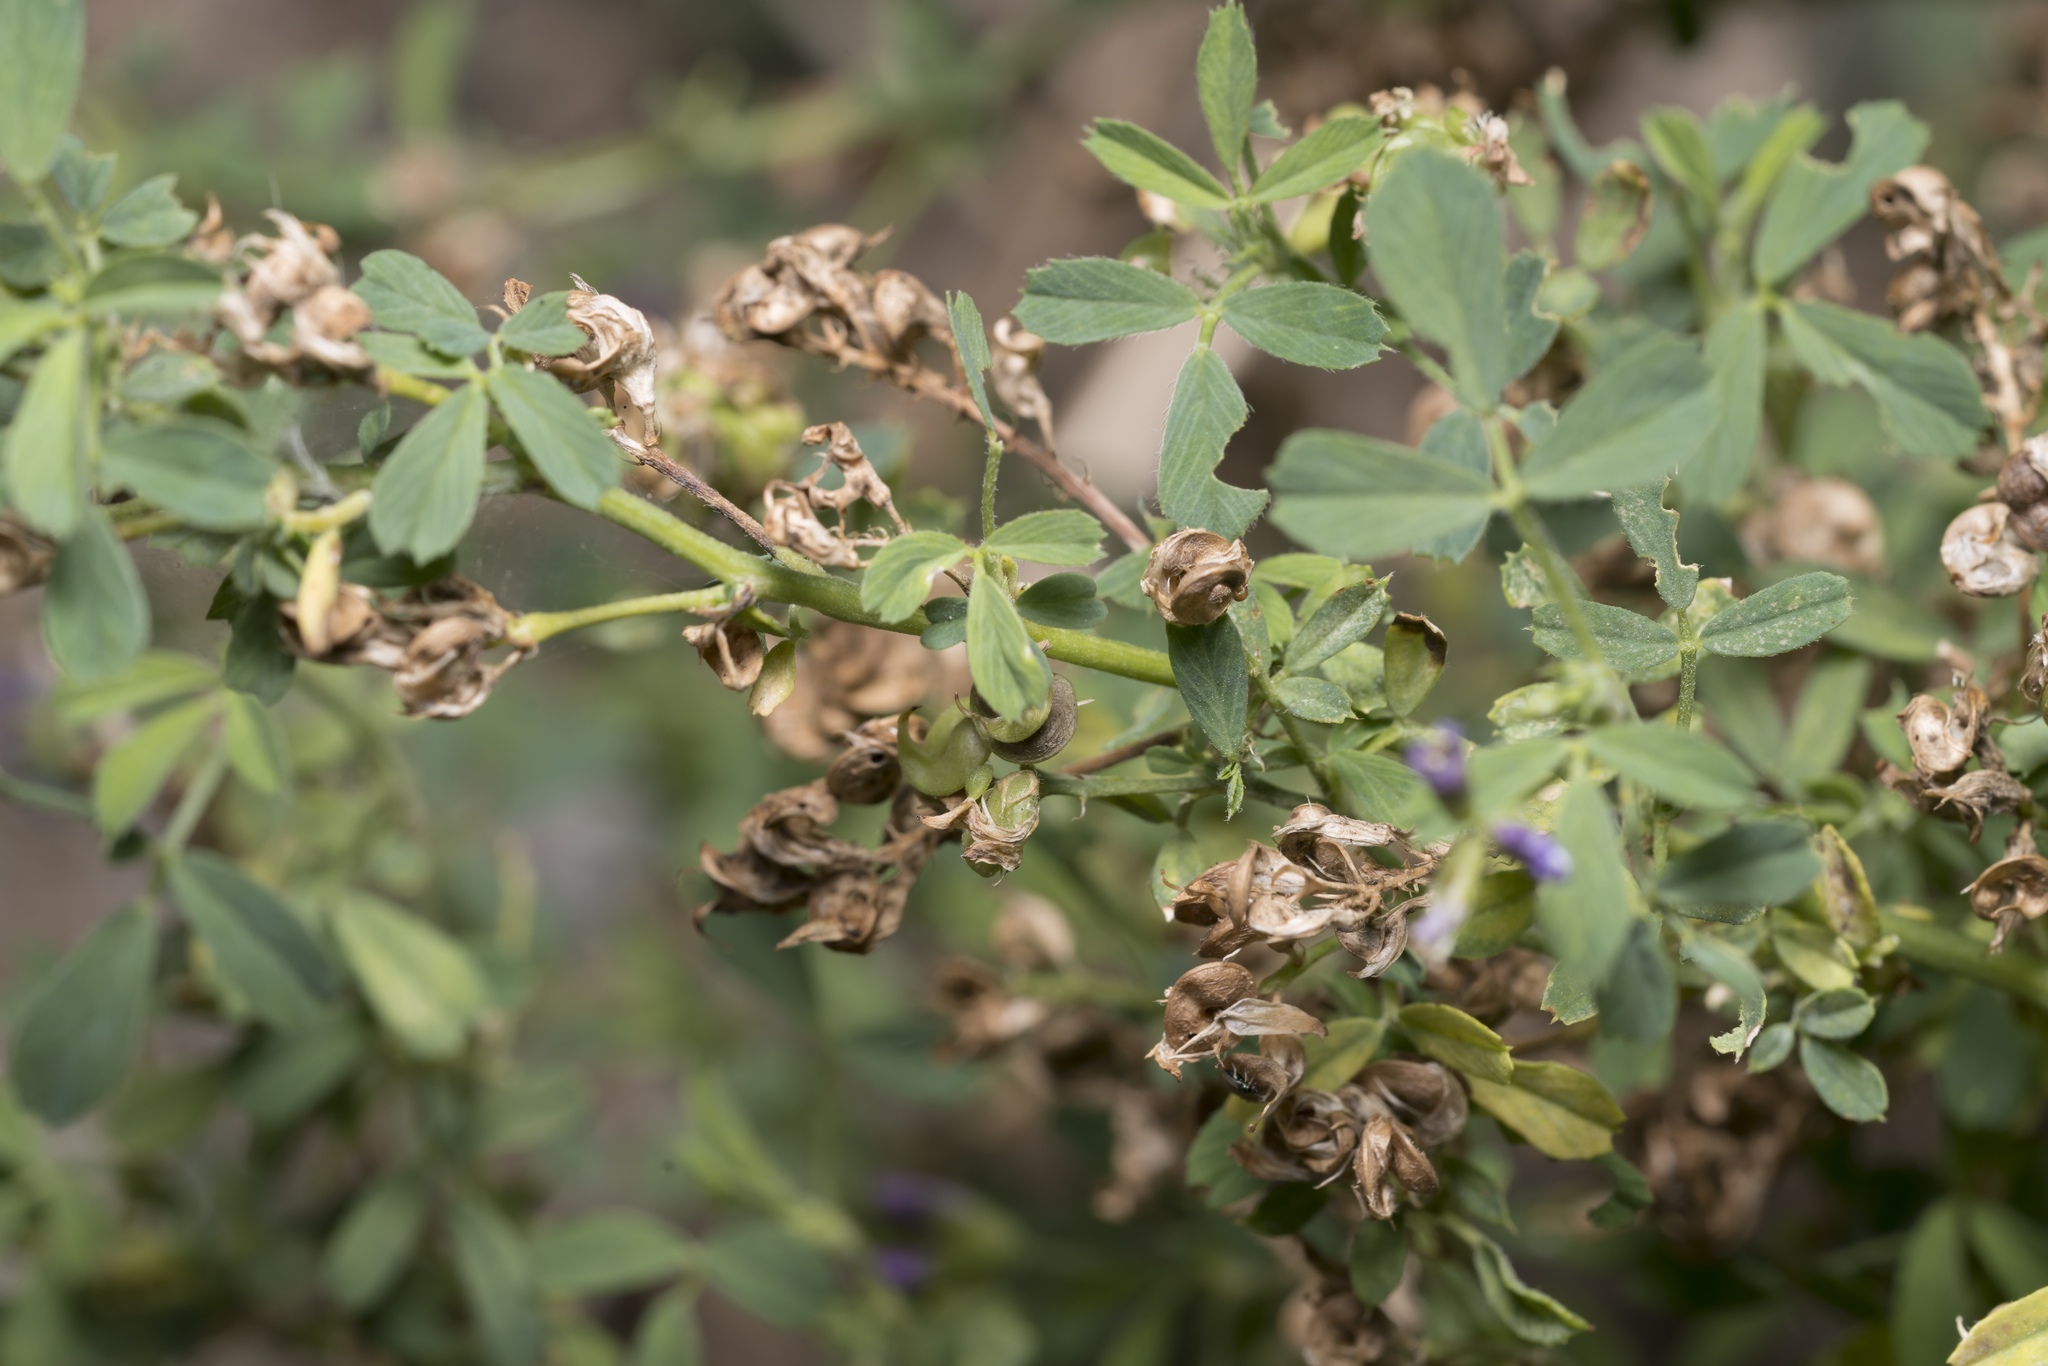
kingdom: Plantae
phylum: Tracheophyta
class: Magnoliopsida
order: Fabales
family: Fabaceae
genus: Medicago
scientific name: Medicago sativa
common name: Alfalfa
